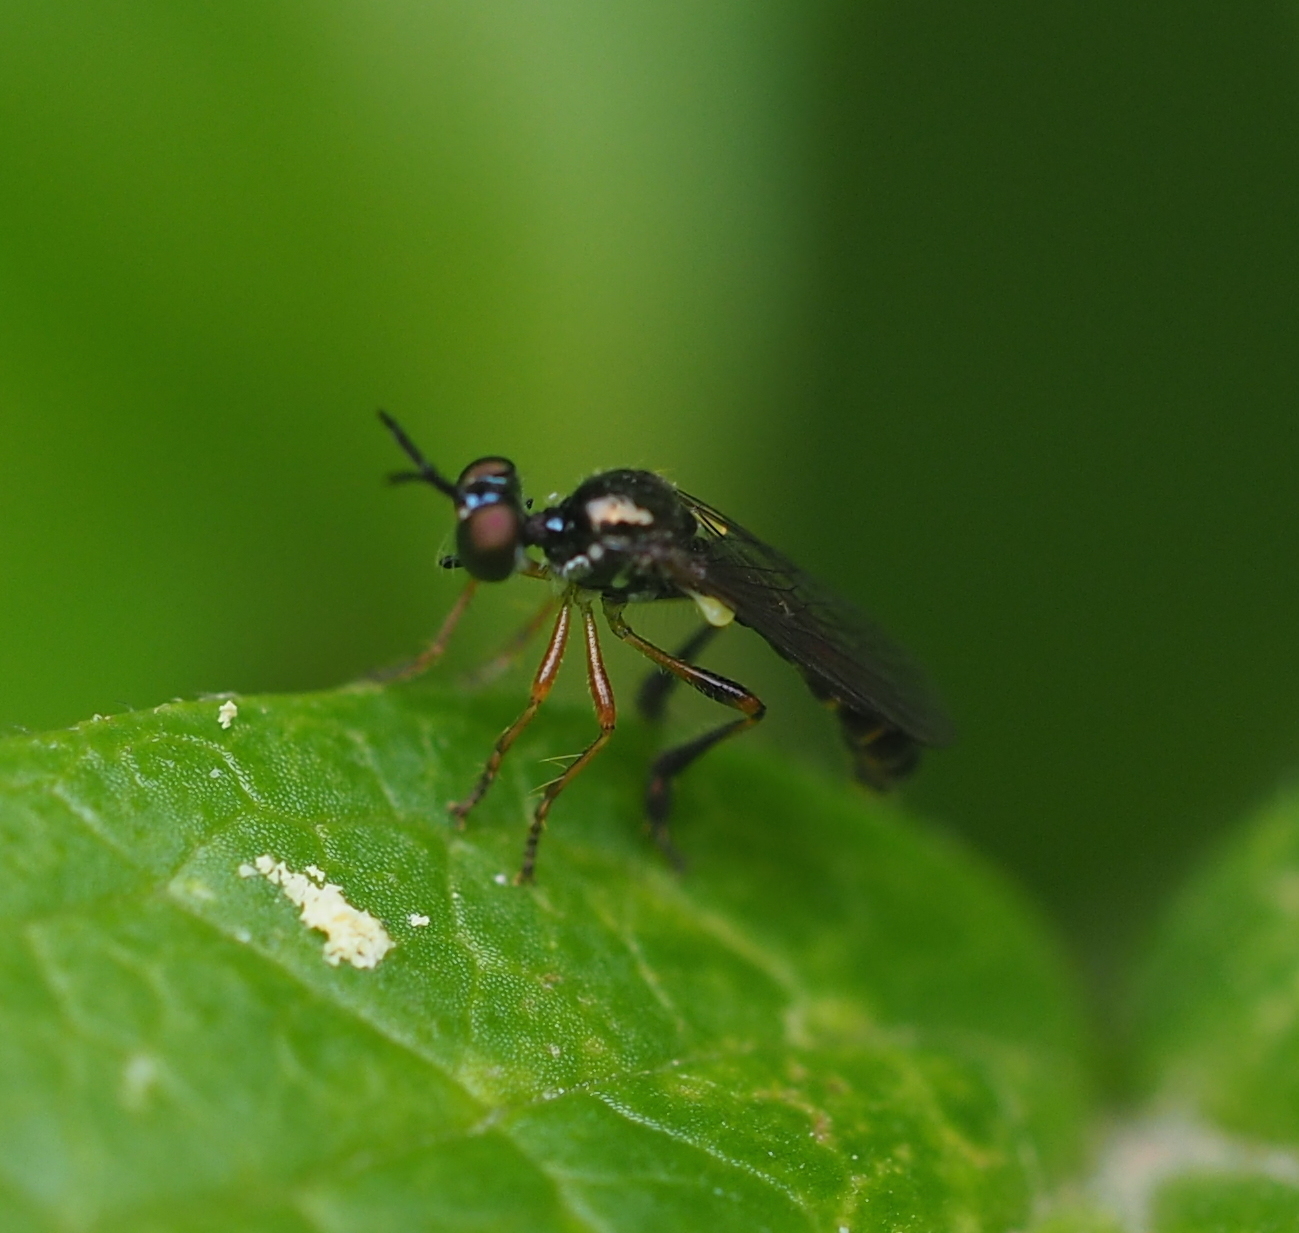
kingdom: Animalia
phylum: Arthropoda
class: Insecta
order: Diptera
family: Asilidae
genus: Dioctria
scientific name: Dioctria lateralis
